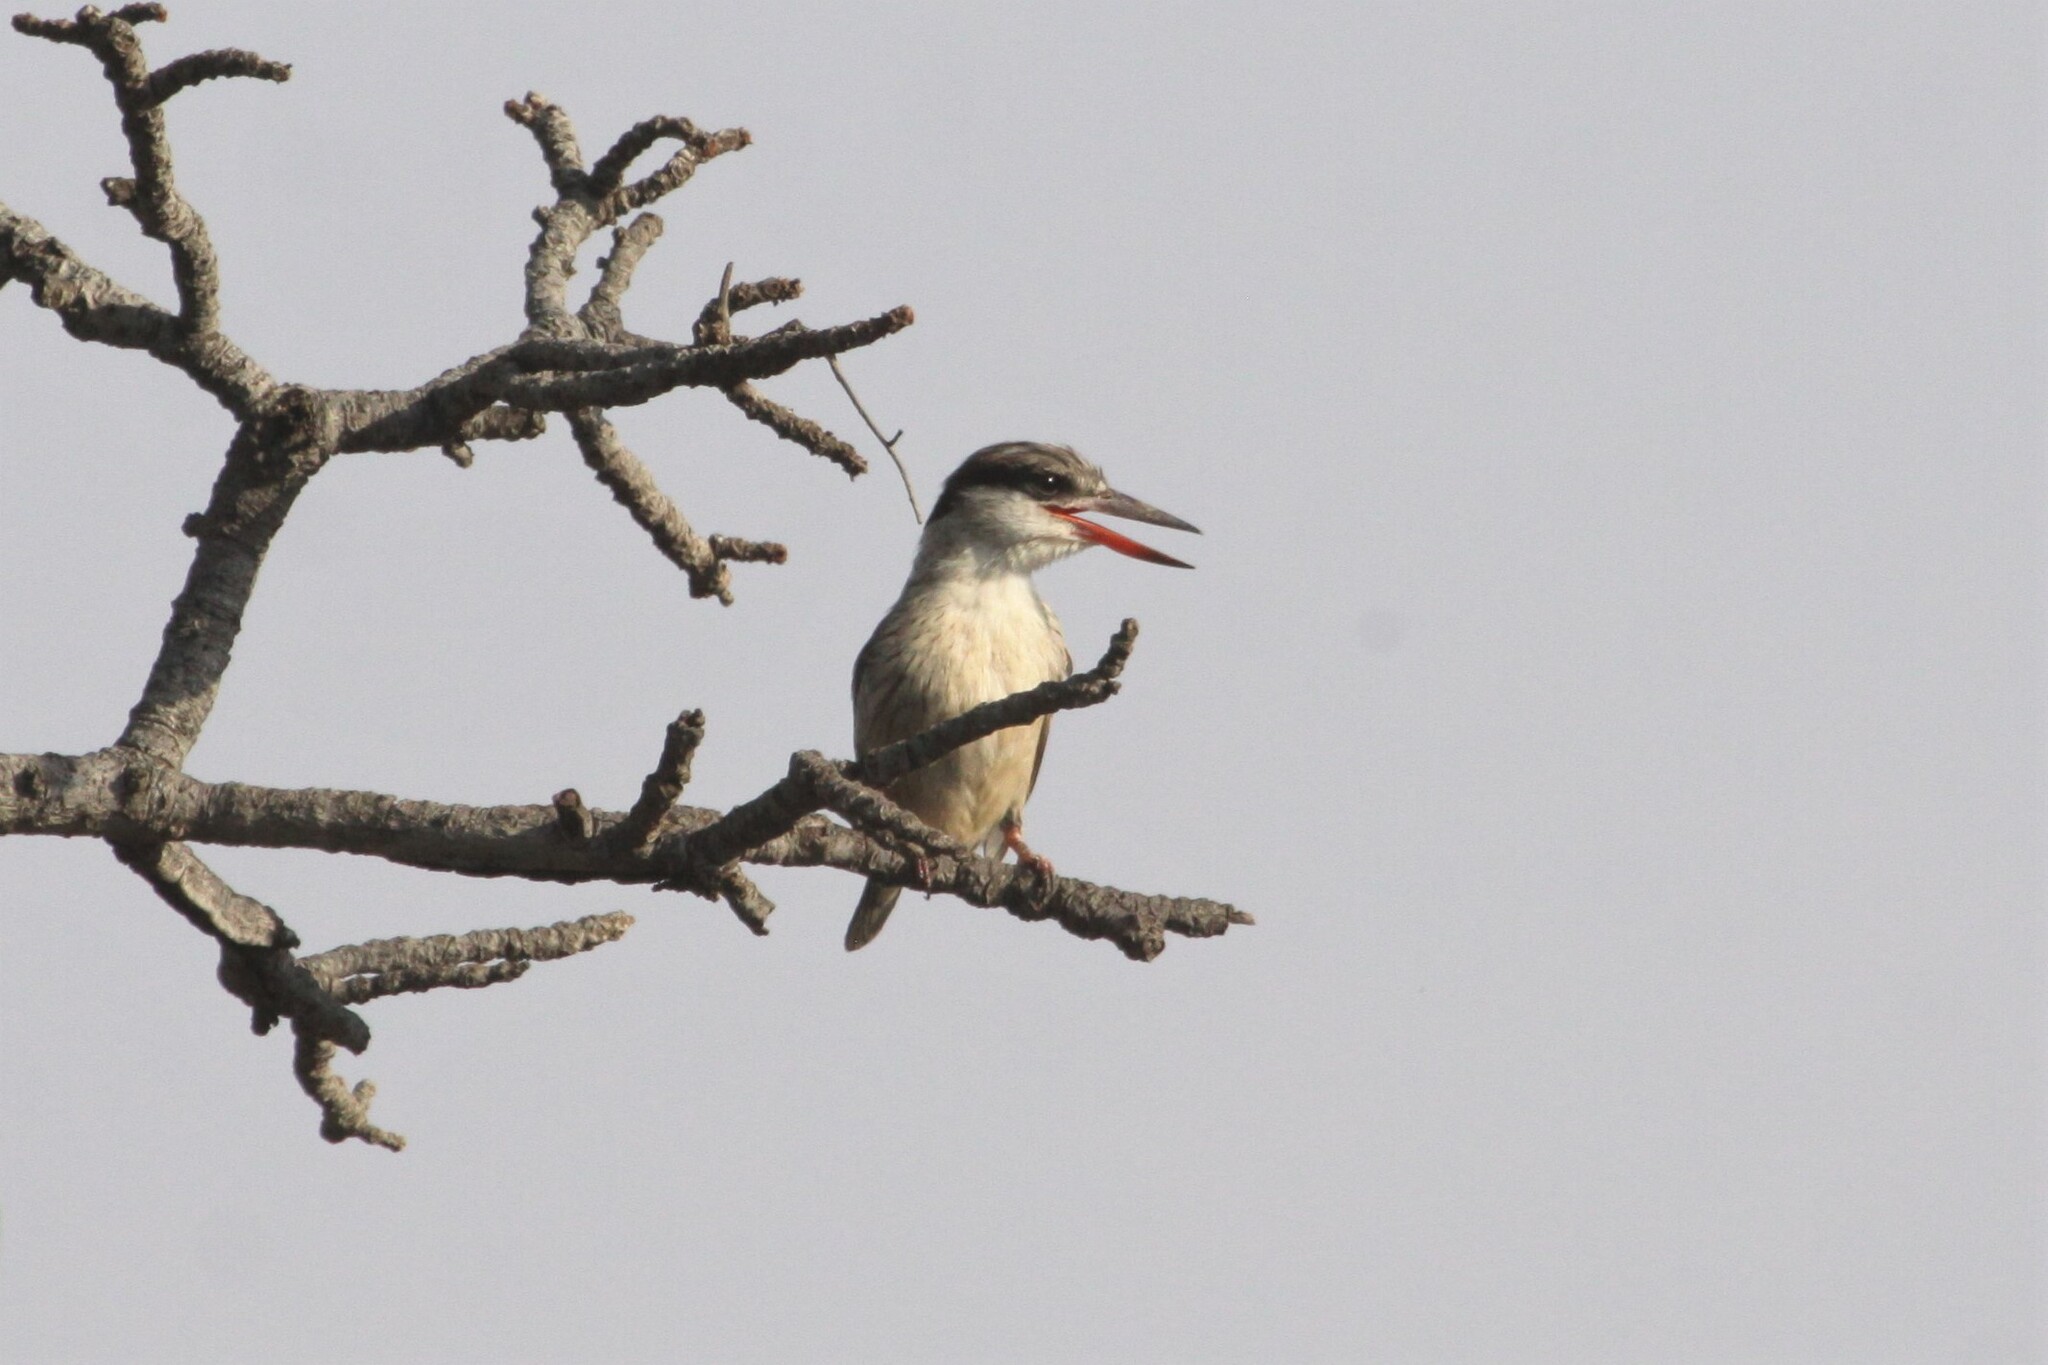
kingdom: Animalia
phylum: Chordata
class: Aves
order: Coraciiformes
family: Alcedinidae
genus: Halcyon
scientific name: Halcyon chelicuti
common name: Striped kingfisher
